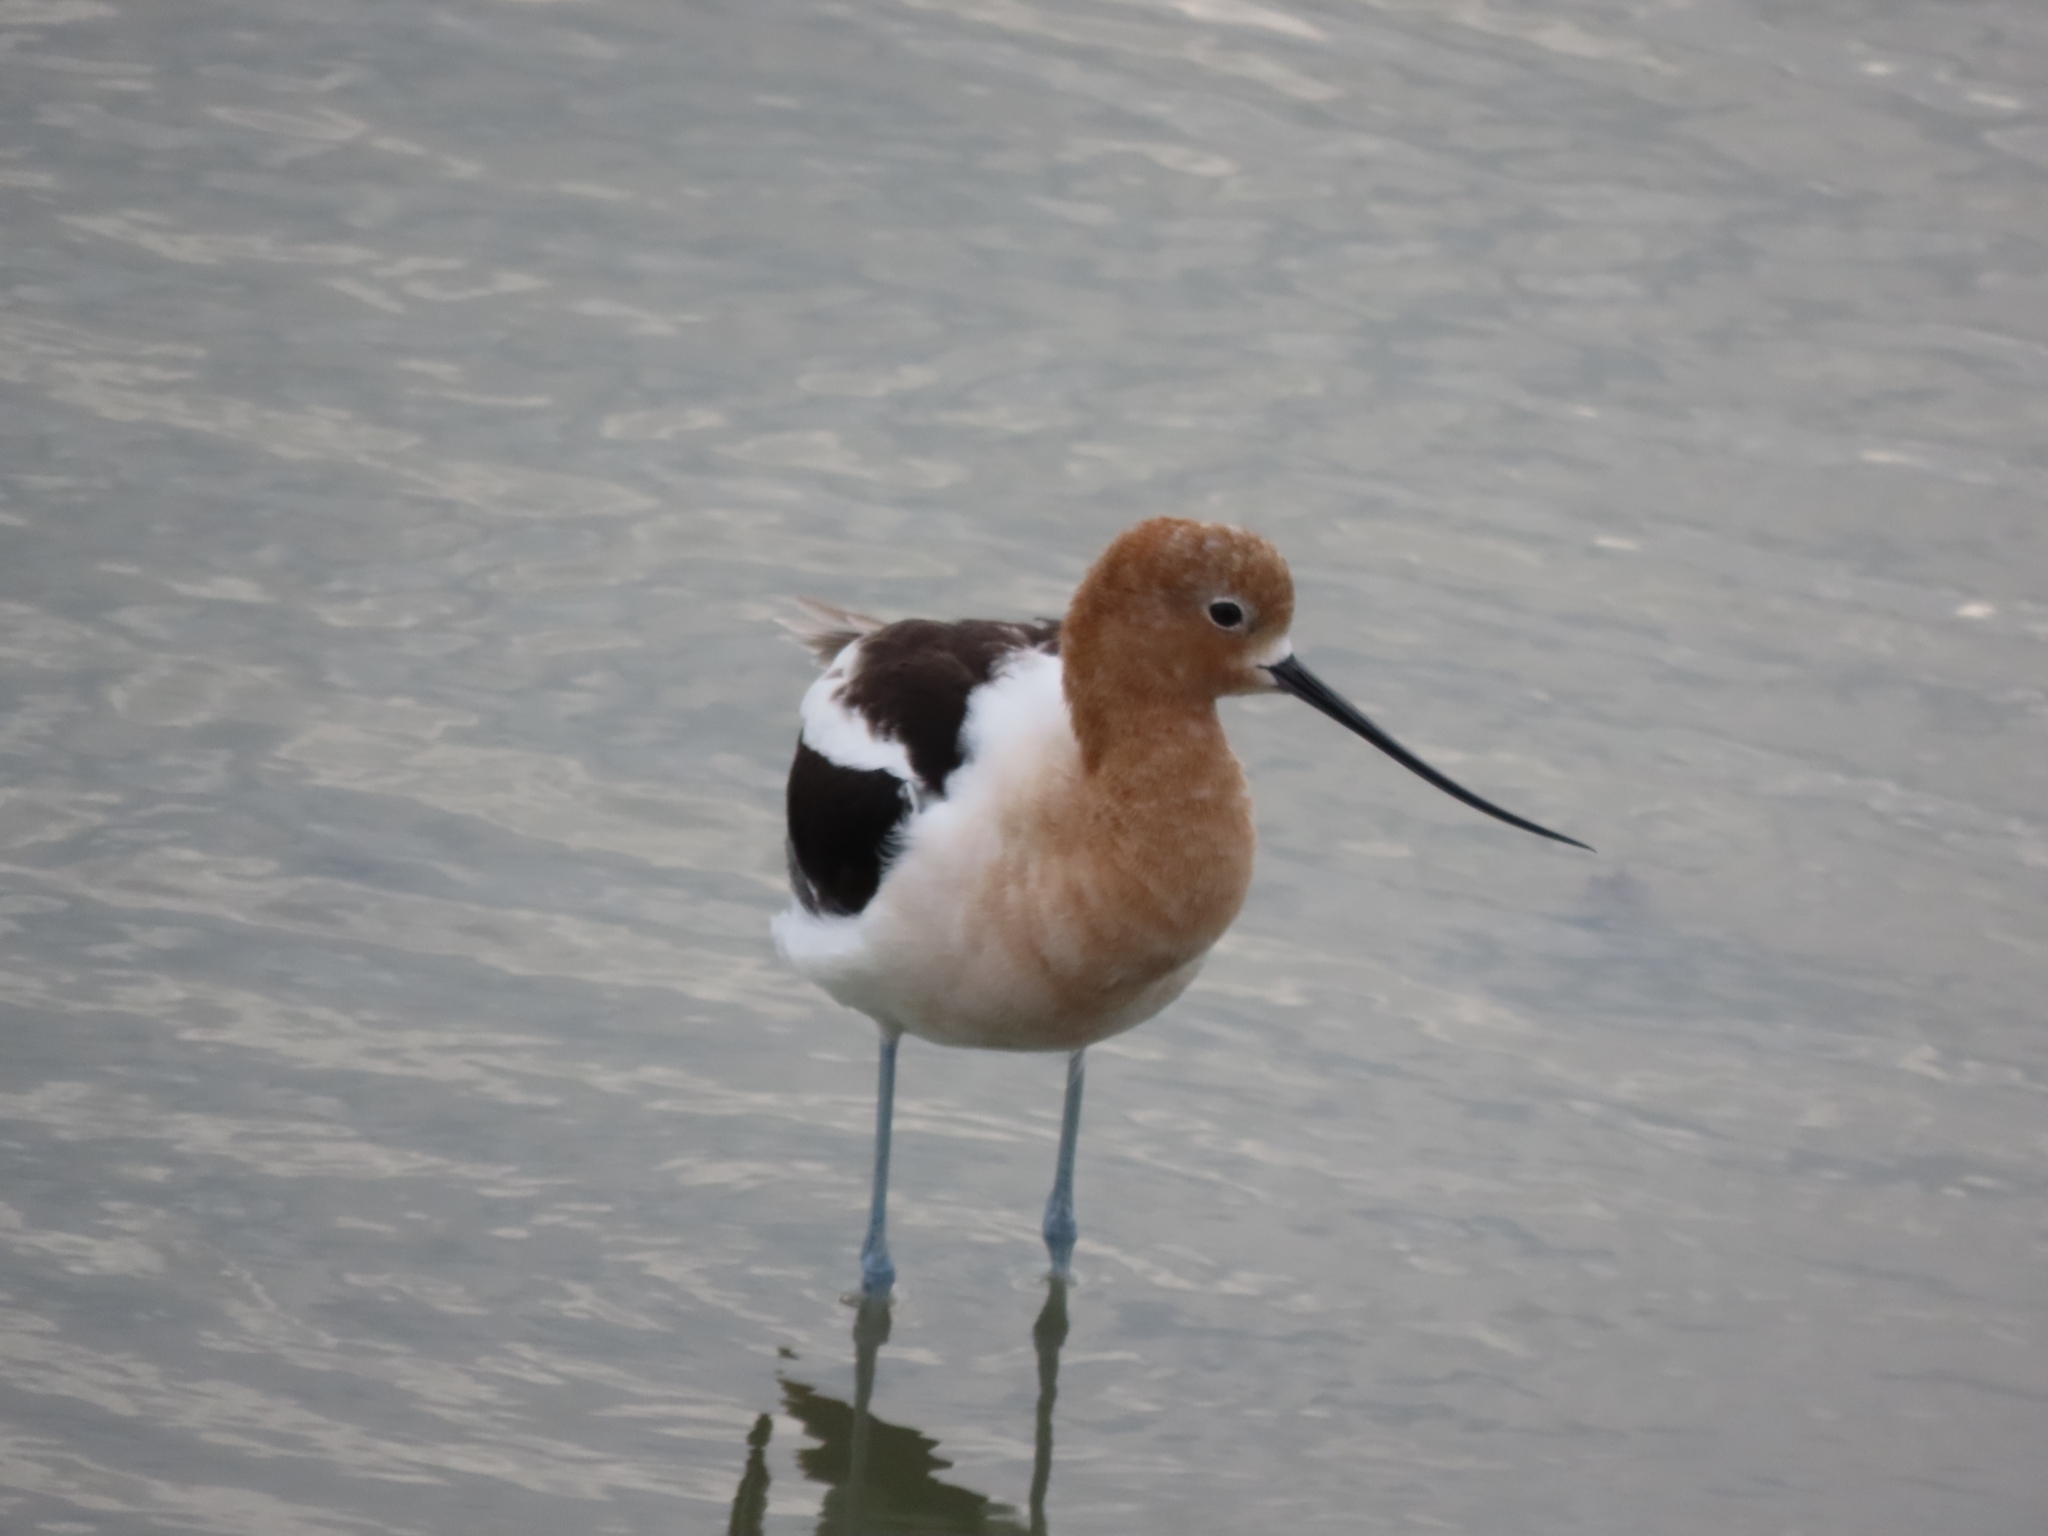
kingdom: Animalia
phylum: Chordata
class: Aves
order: Charadriiformes
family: Recurvirostridae
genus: Recurvirostra
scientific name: Recurvirostra americana
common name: American avocet
